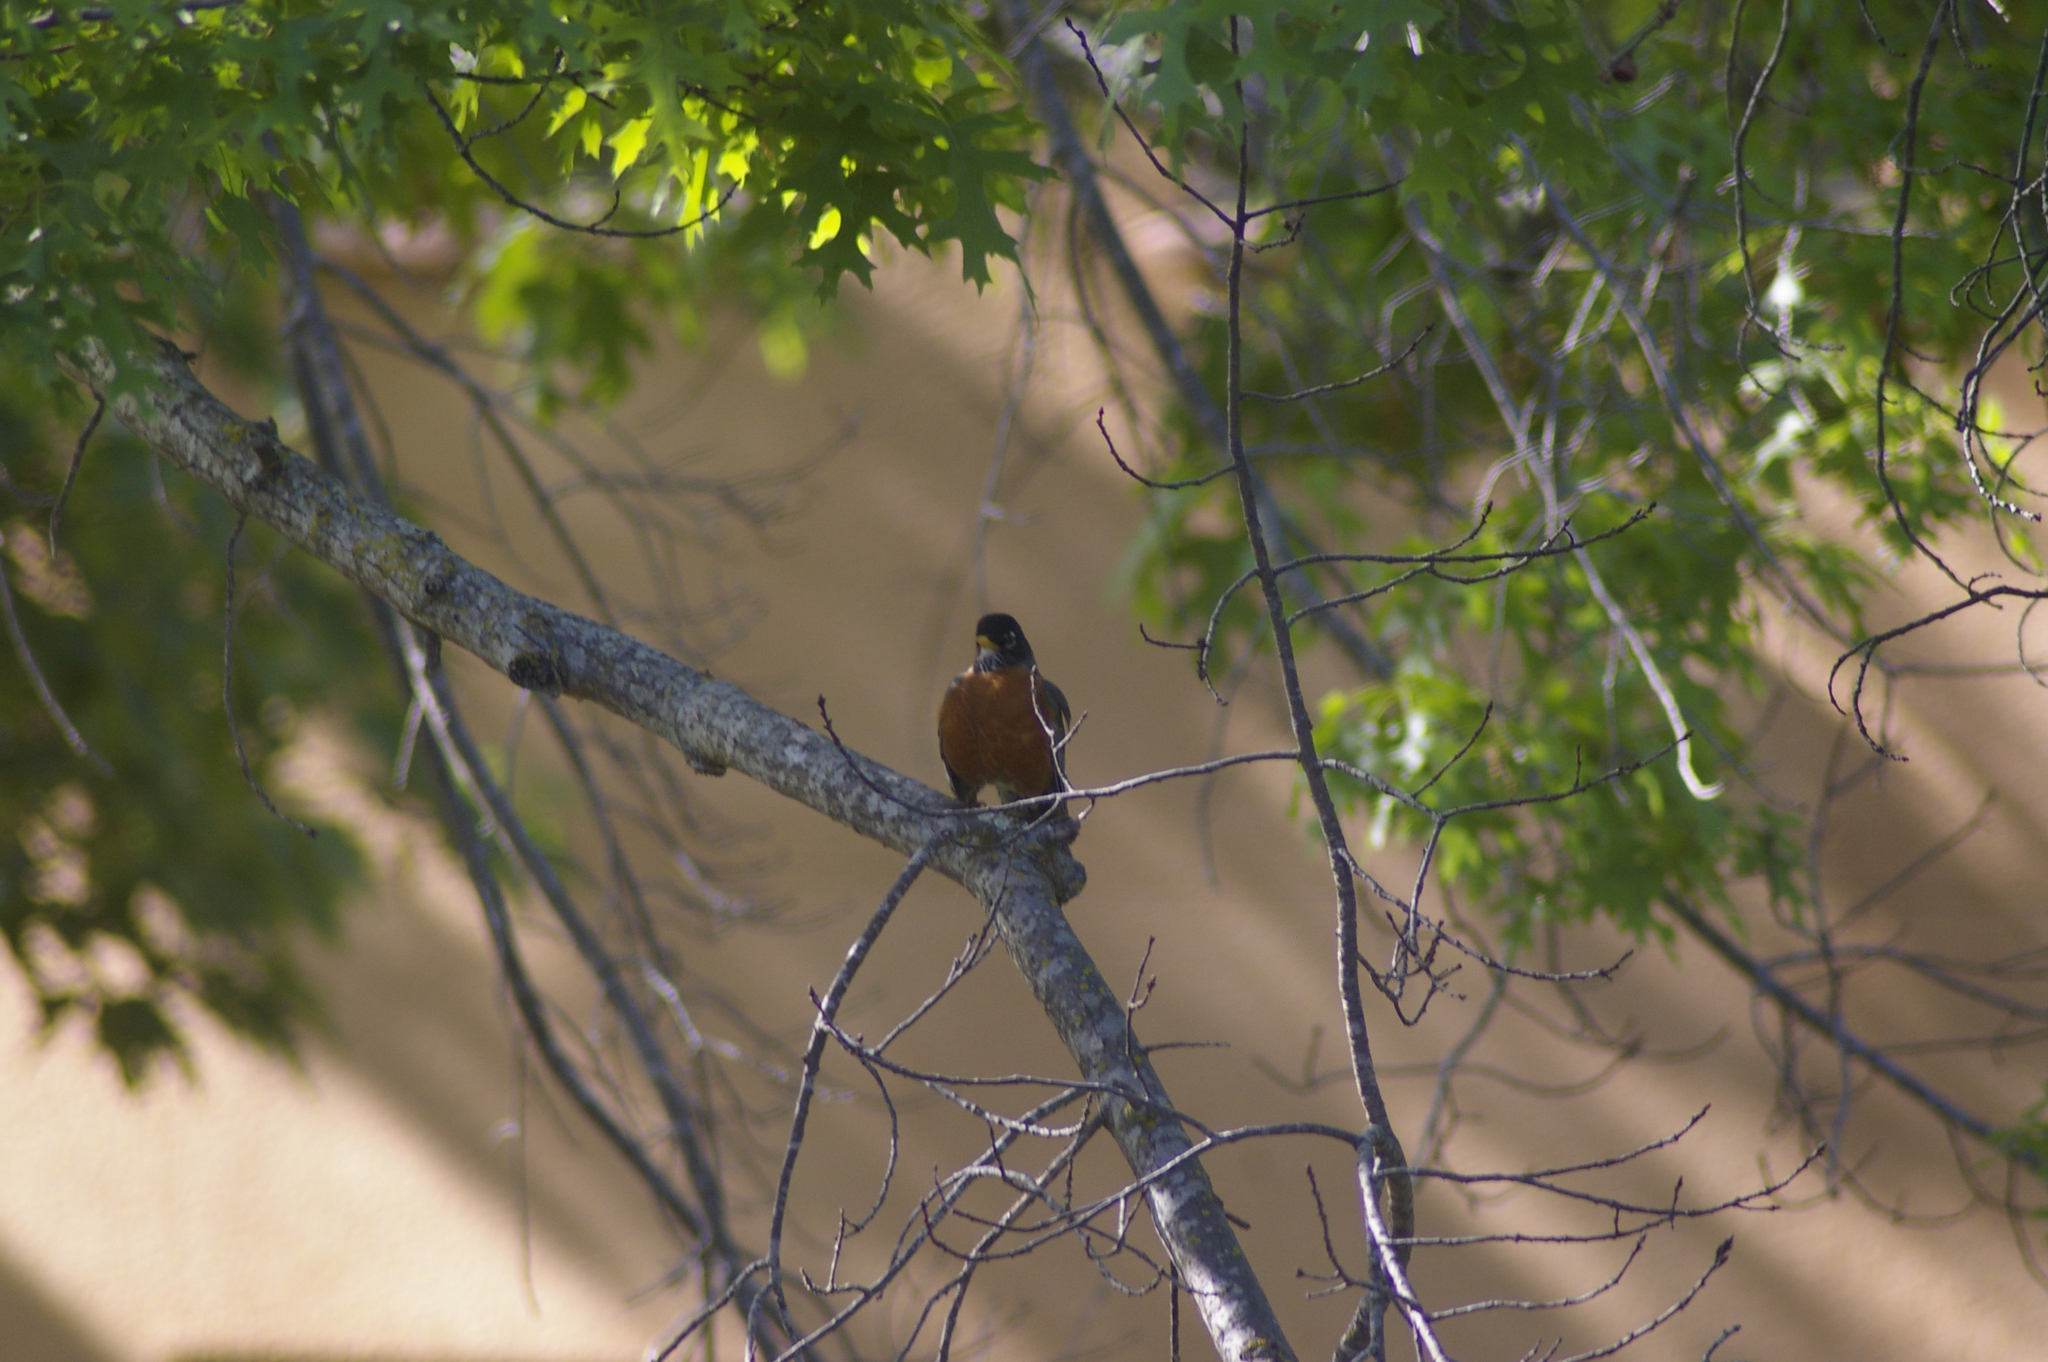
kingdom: Animalia
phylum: Chordata
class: Aves
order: Passeriformes
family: Turdidae
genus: Turdus
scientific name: Turdus migratorius
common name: American robin
